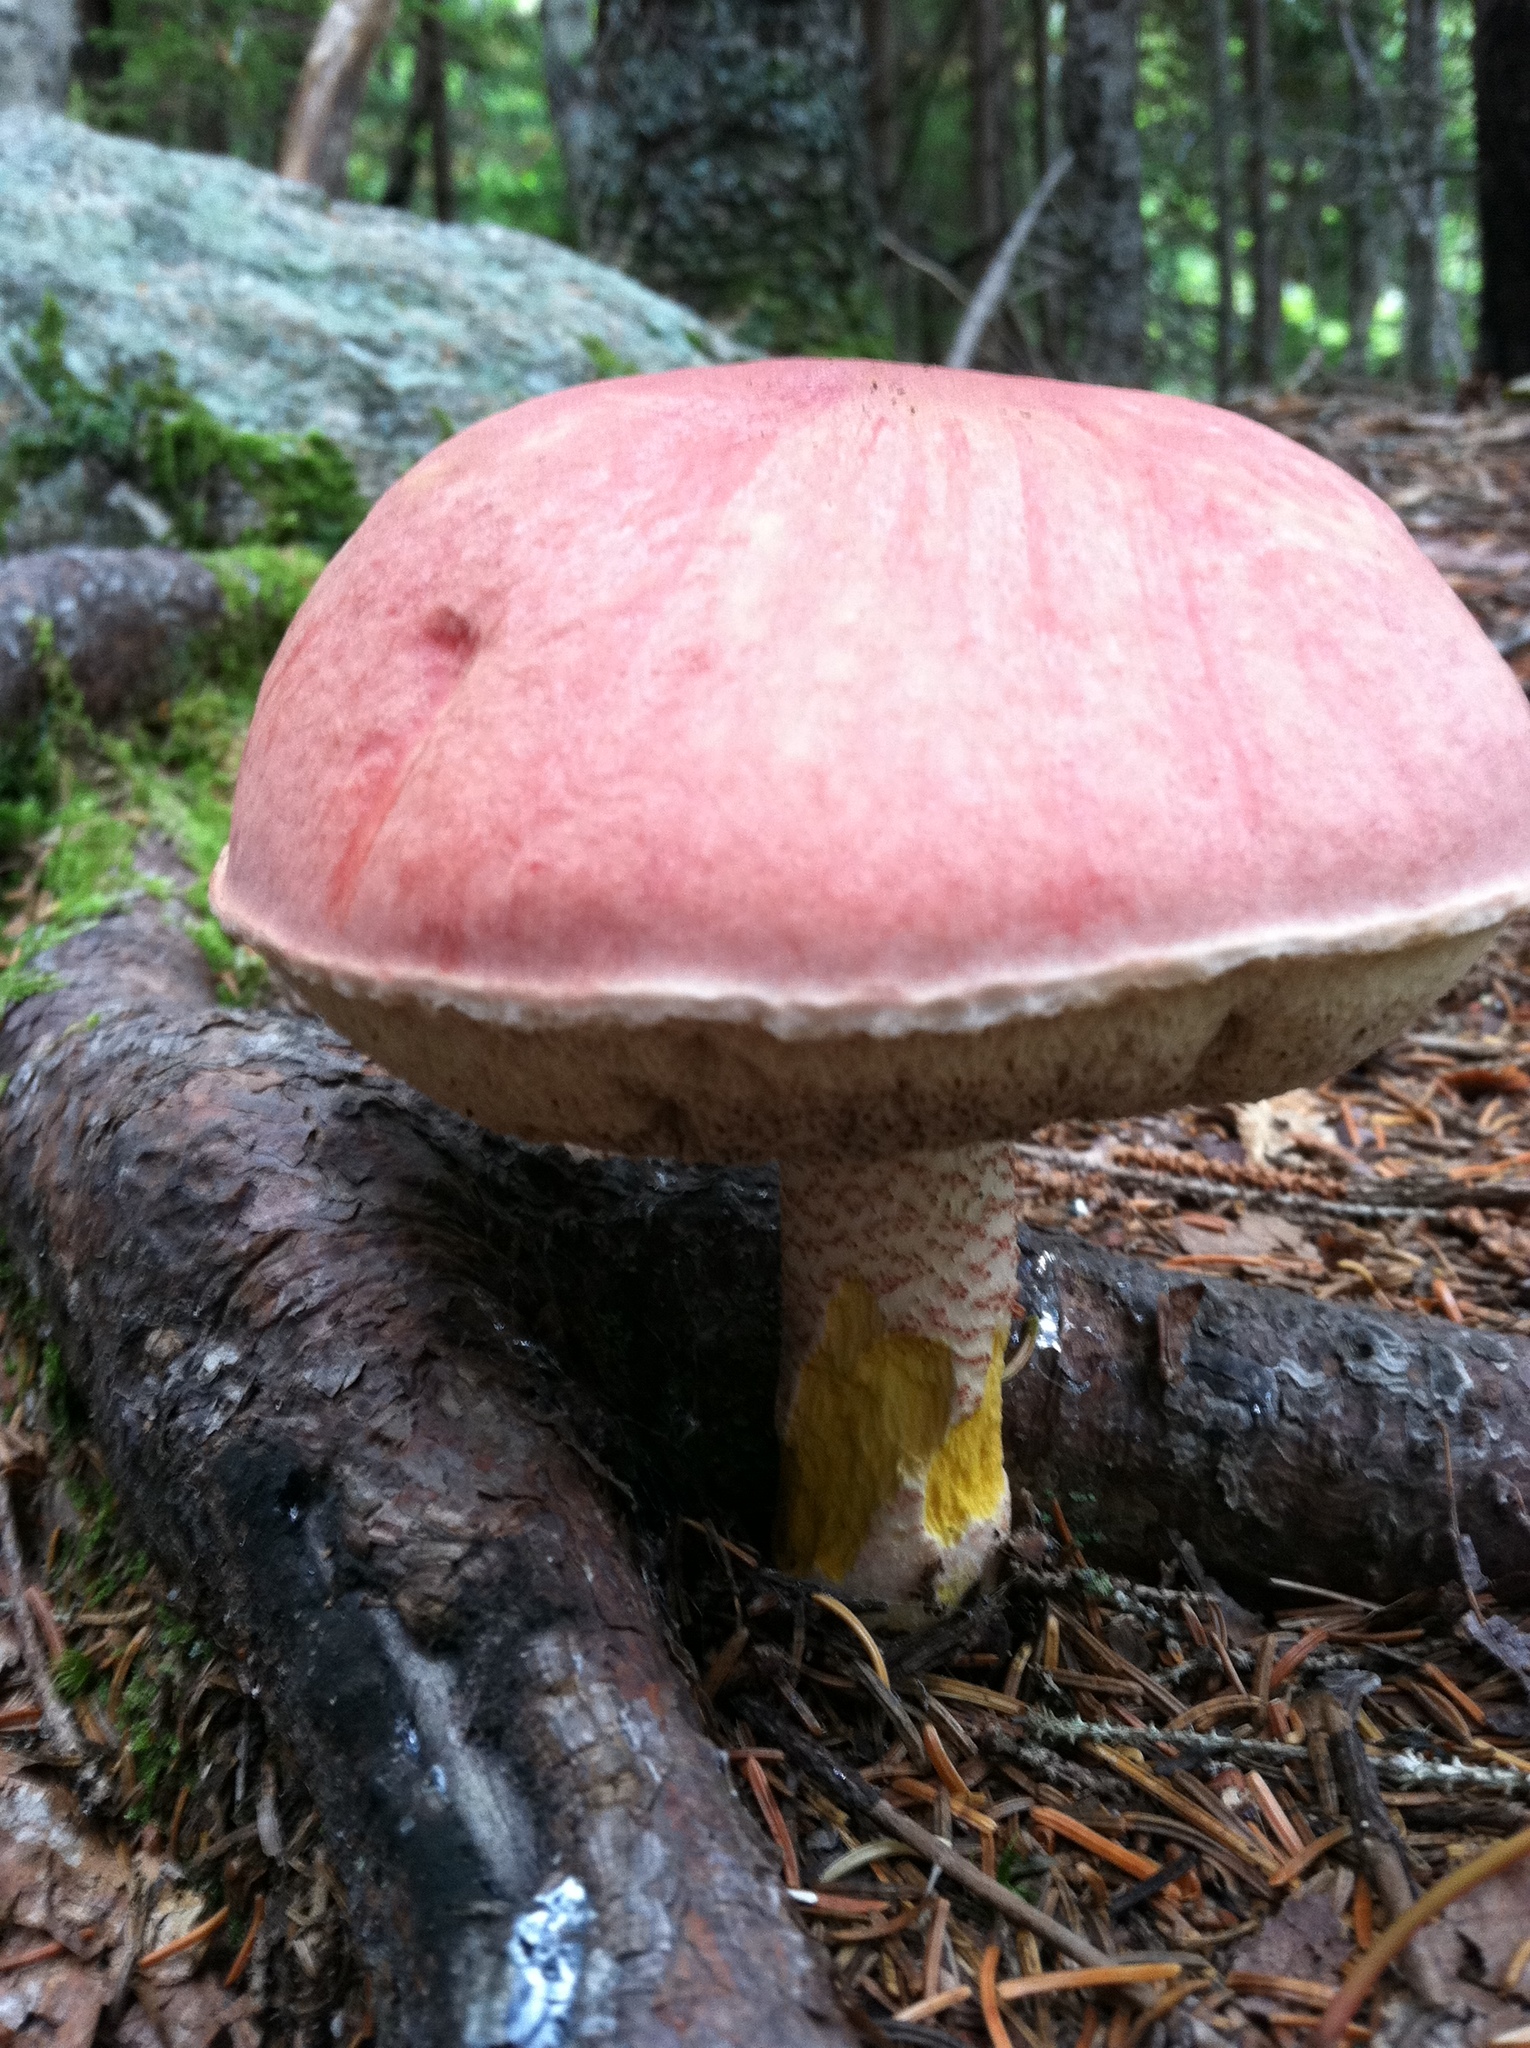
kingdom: Fungi
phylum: Basidiomycota
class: Agaricomycetes
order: Boletales
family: Boletaceae
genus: Harrya
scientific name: Harrya chromipes
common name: Chrome-footed bolete
